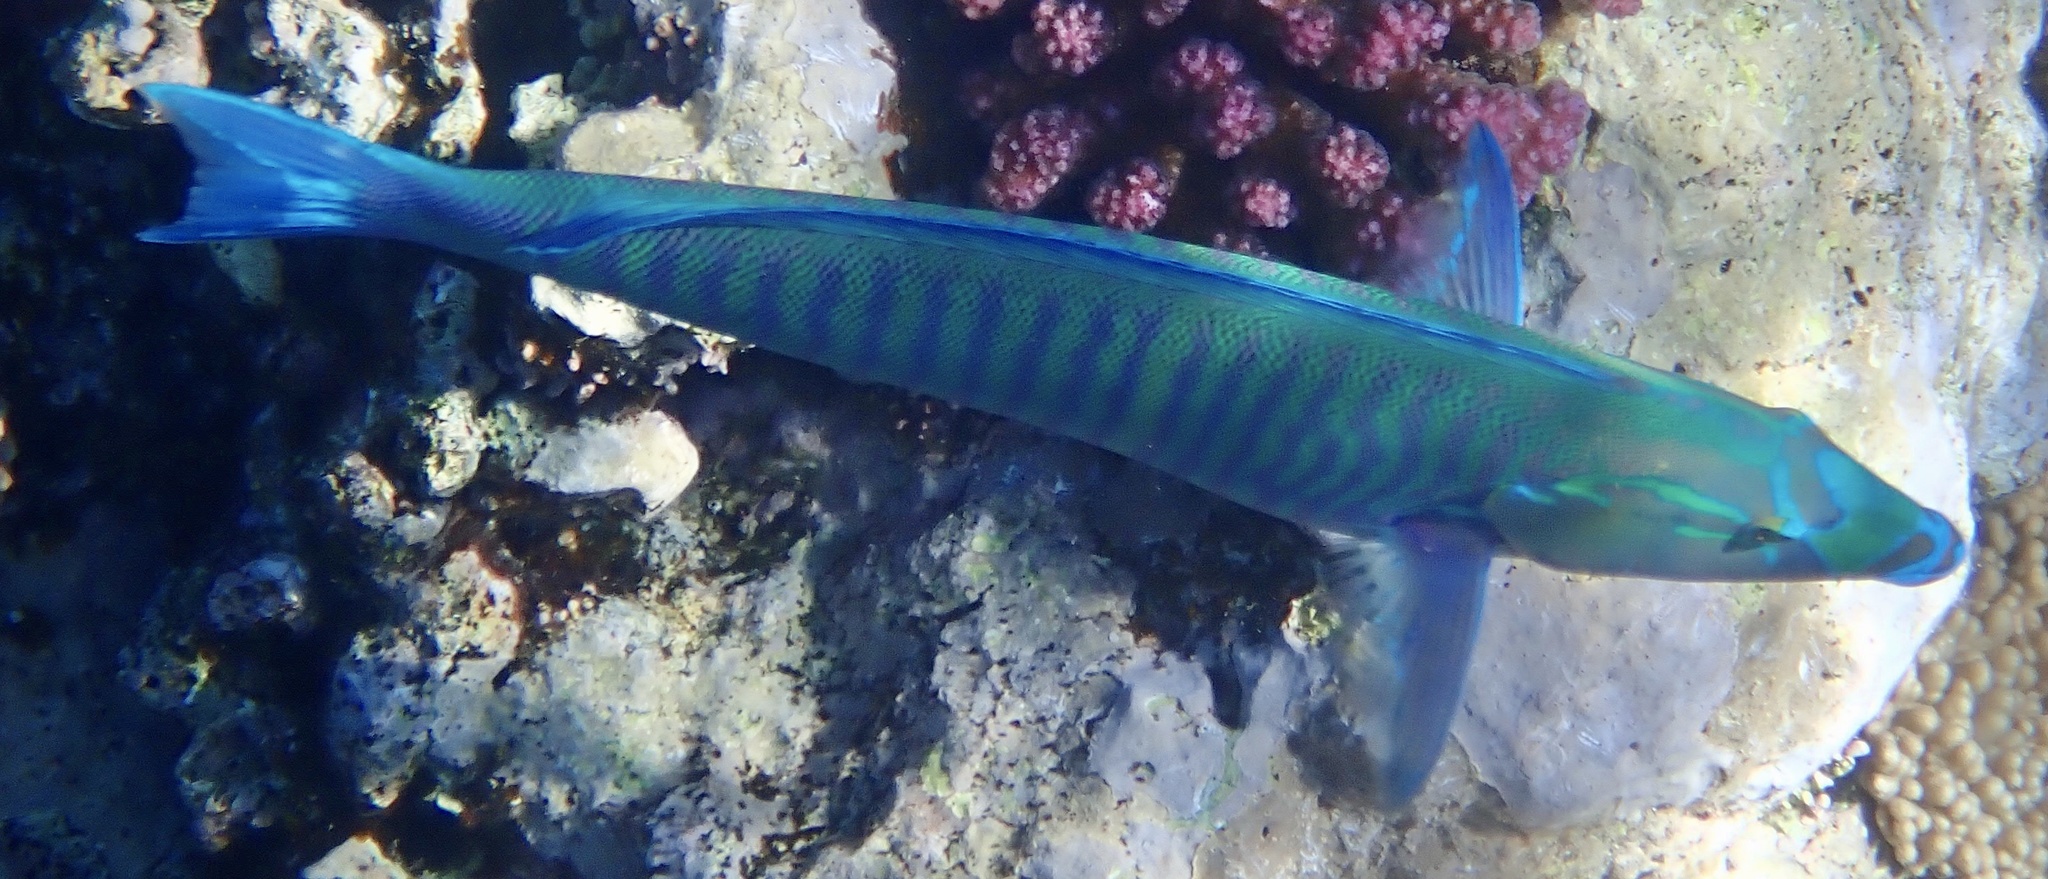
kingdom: Animalia
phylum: Chordata
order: Perciformes
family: Labridae
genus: Hologymnosus
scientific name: Hologymnosus annulatus
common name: Ring wrasse
